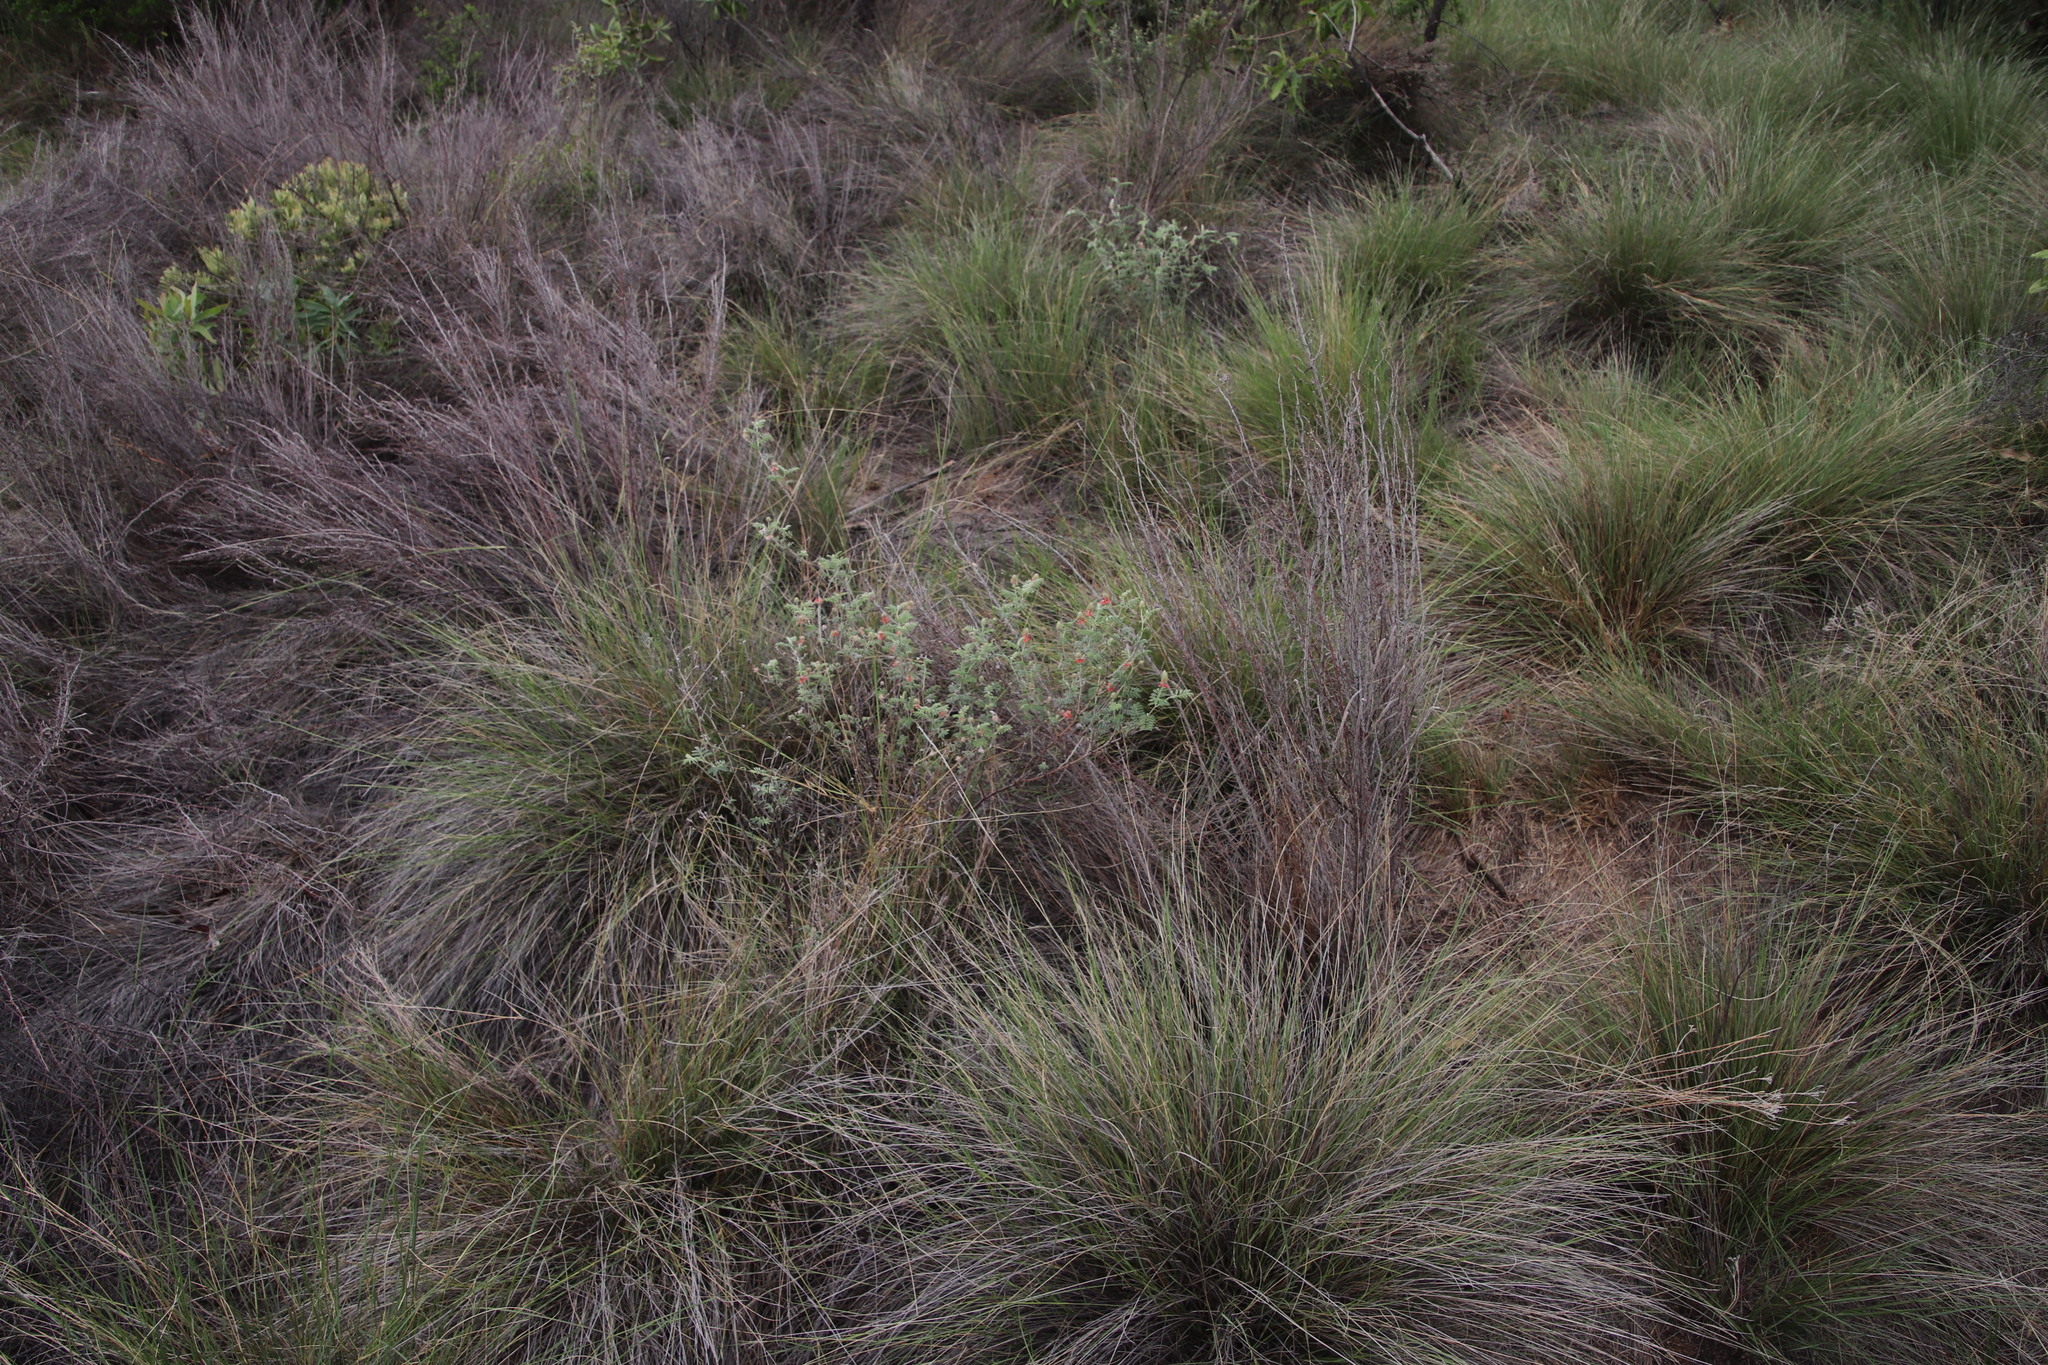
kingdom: Plantae
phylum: Tracheophyta
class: Magnoliopsida
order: Fabales
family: Fabaceae
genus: Indigofera
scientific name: Indigofera melanadenia
